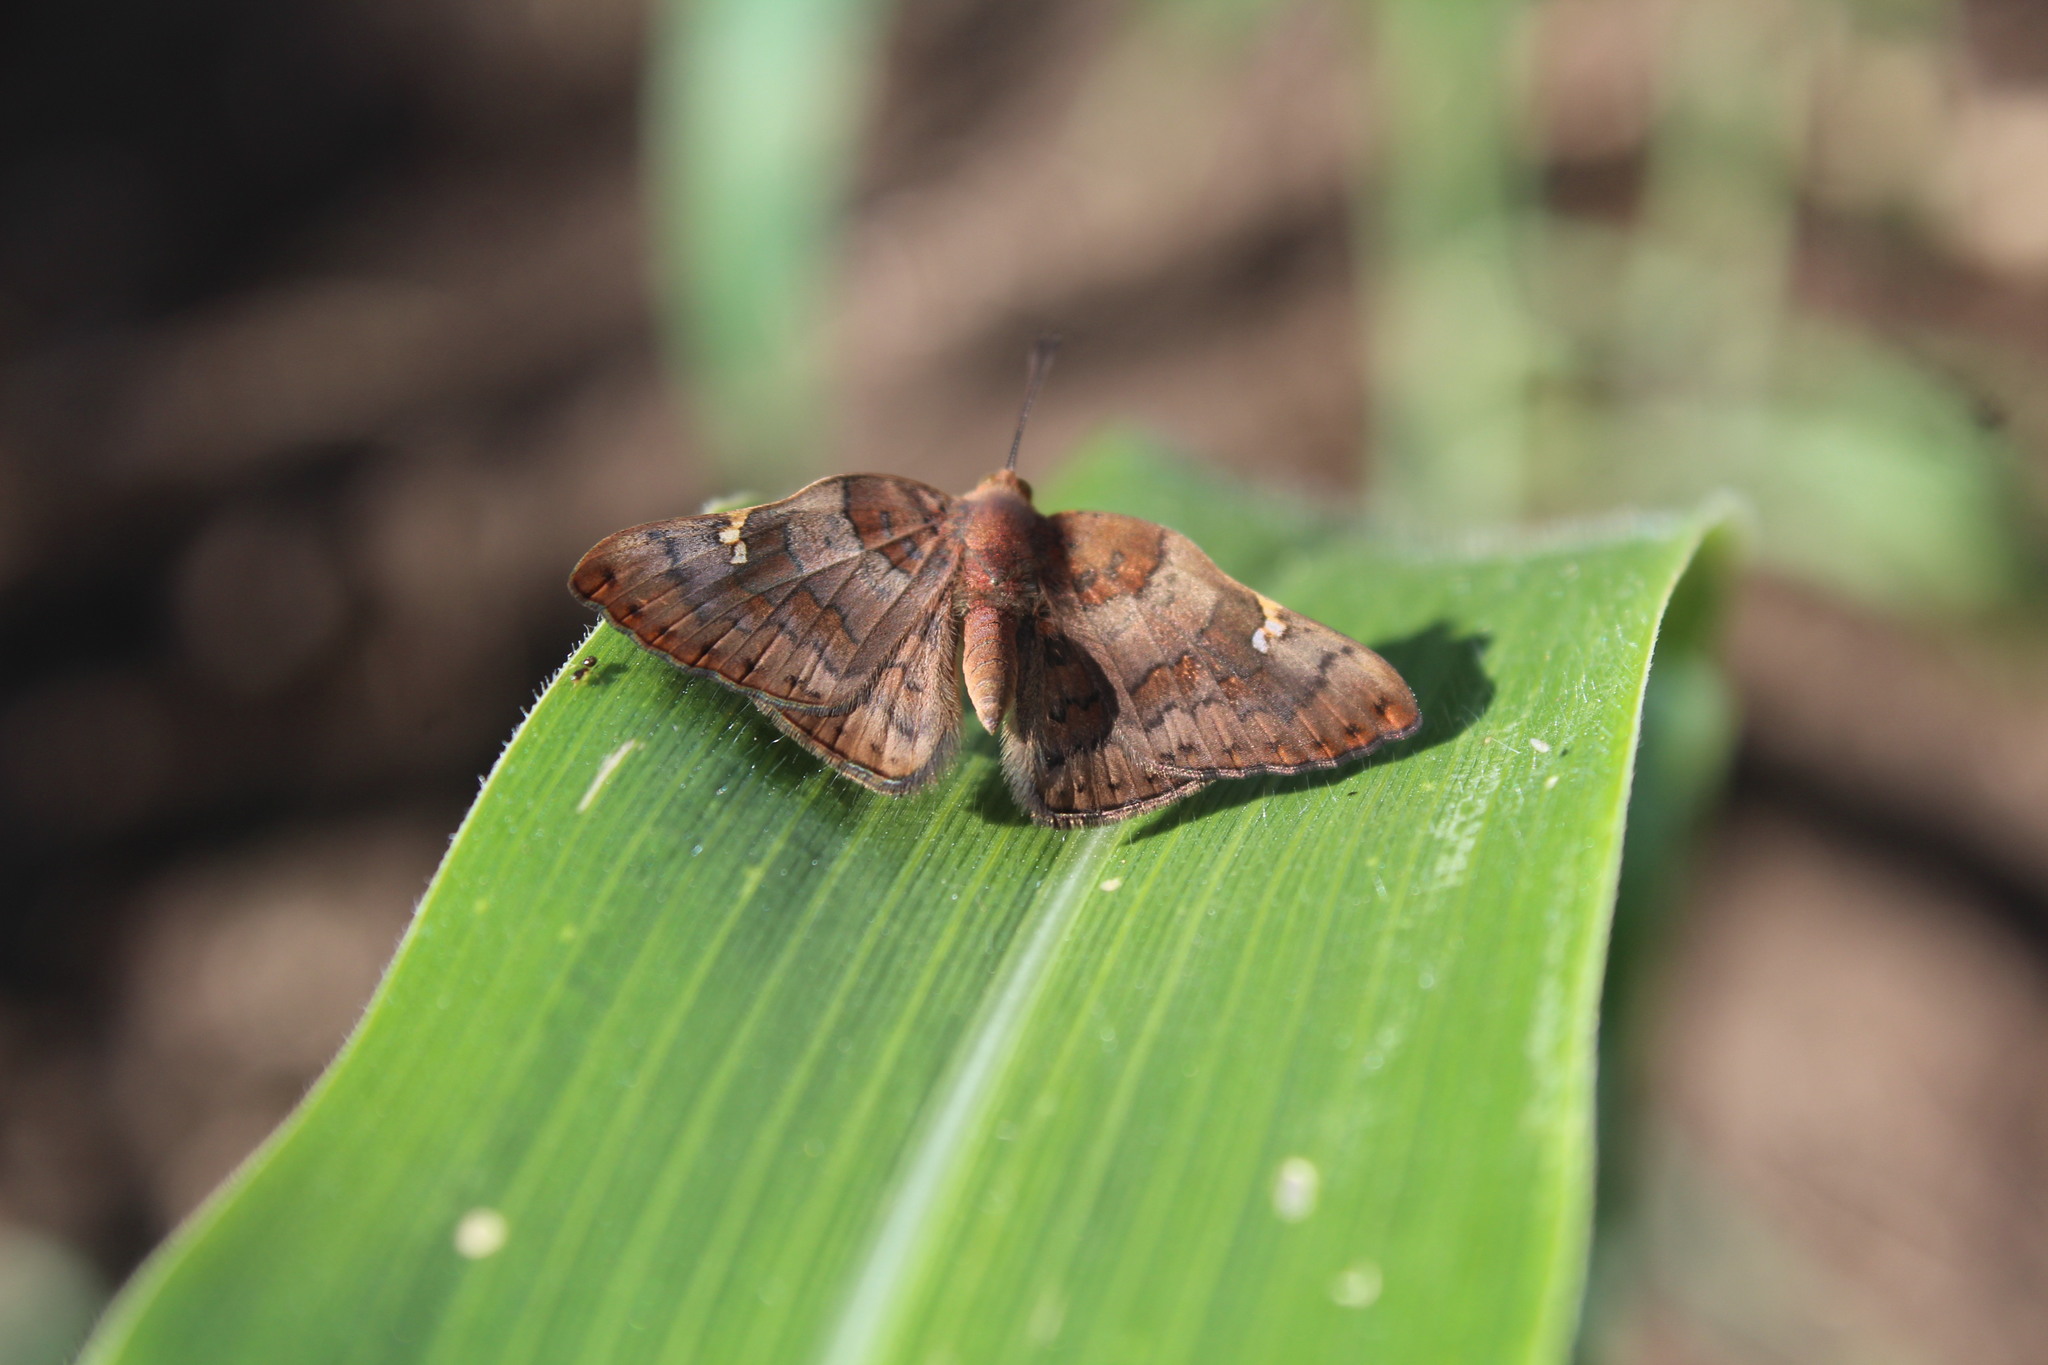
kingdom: Animalia
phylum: Arthropoda
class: Insecta
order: Lepidoptera
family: Riodinidae
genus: Curvie
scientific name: Curvie emesia
